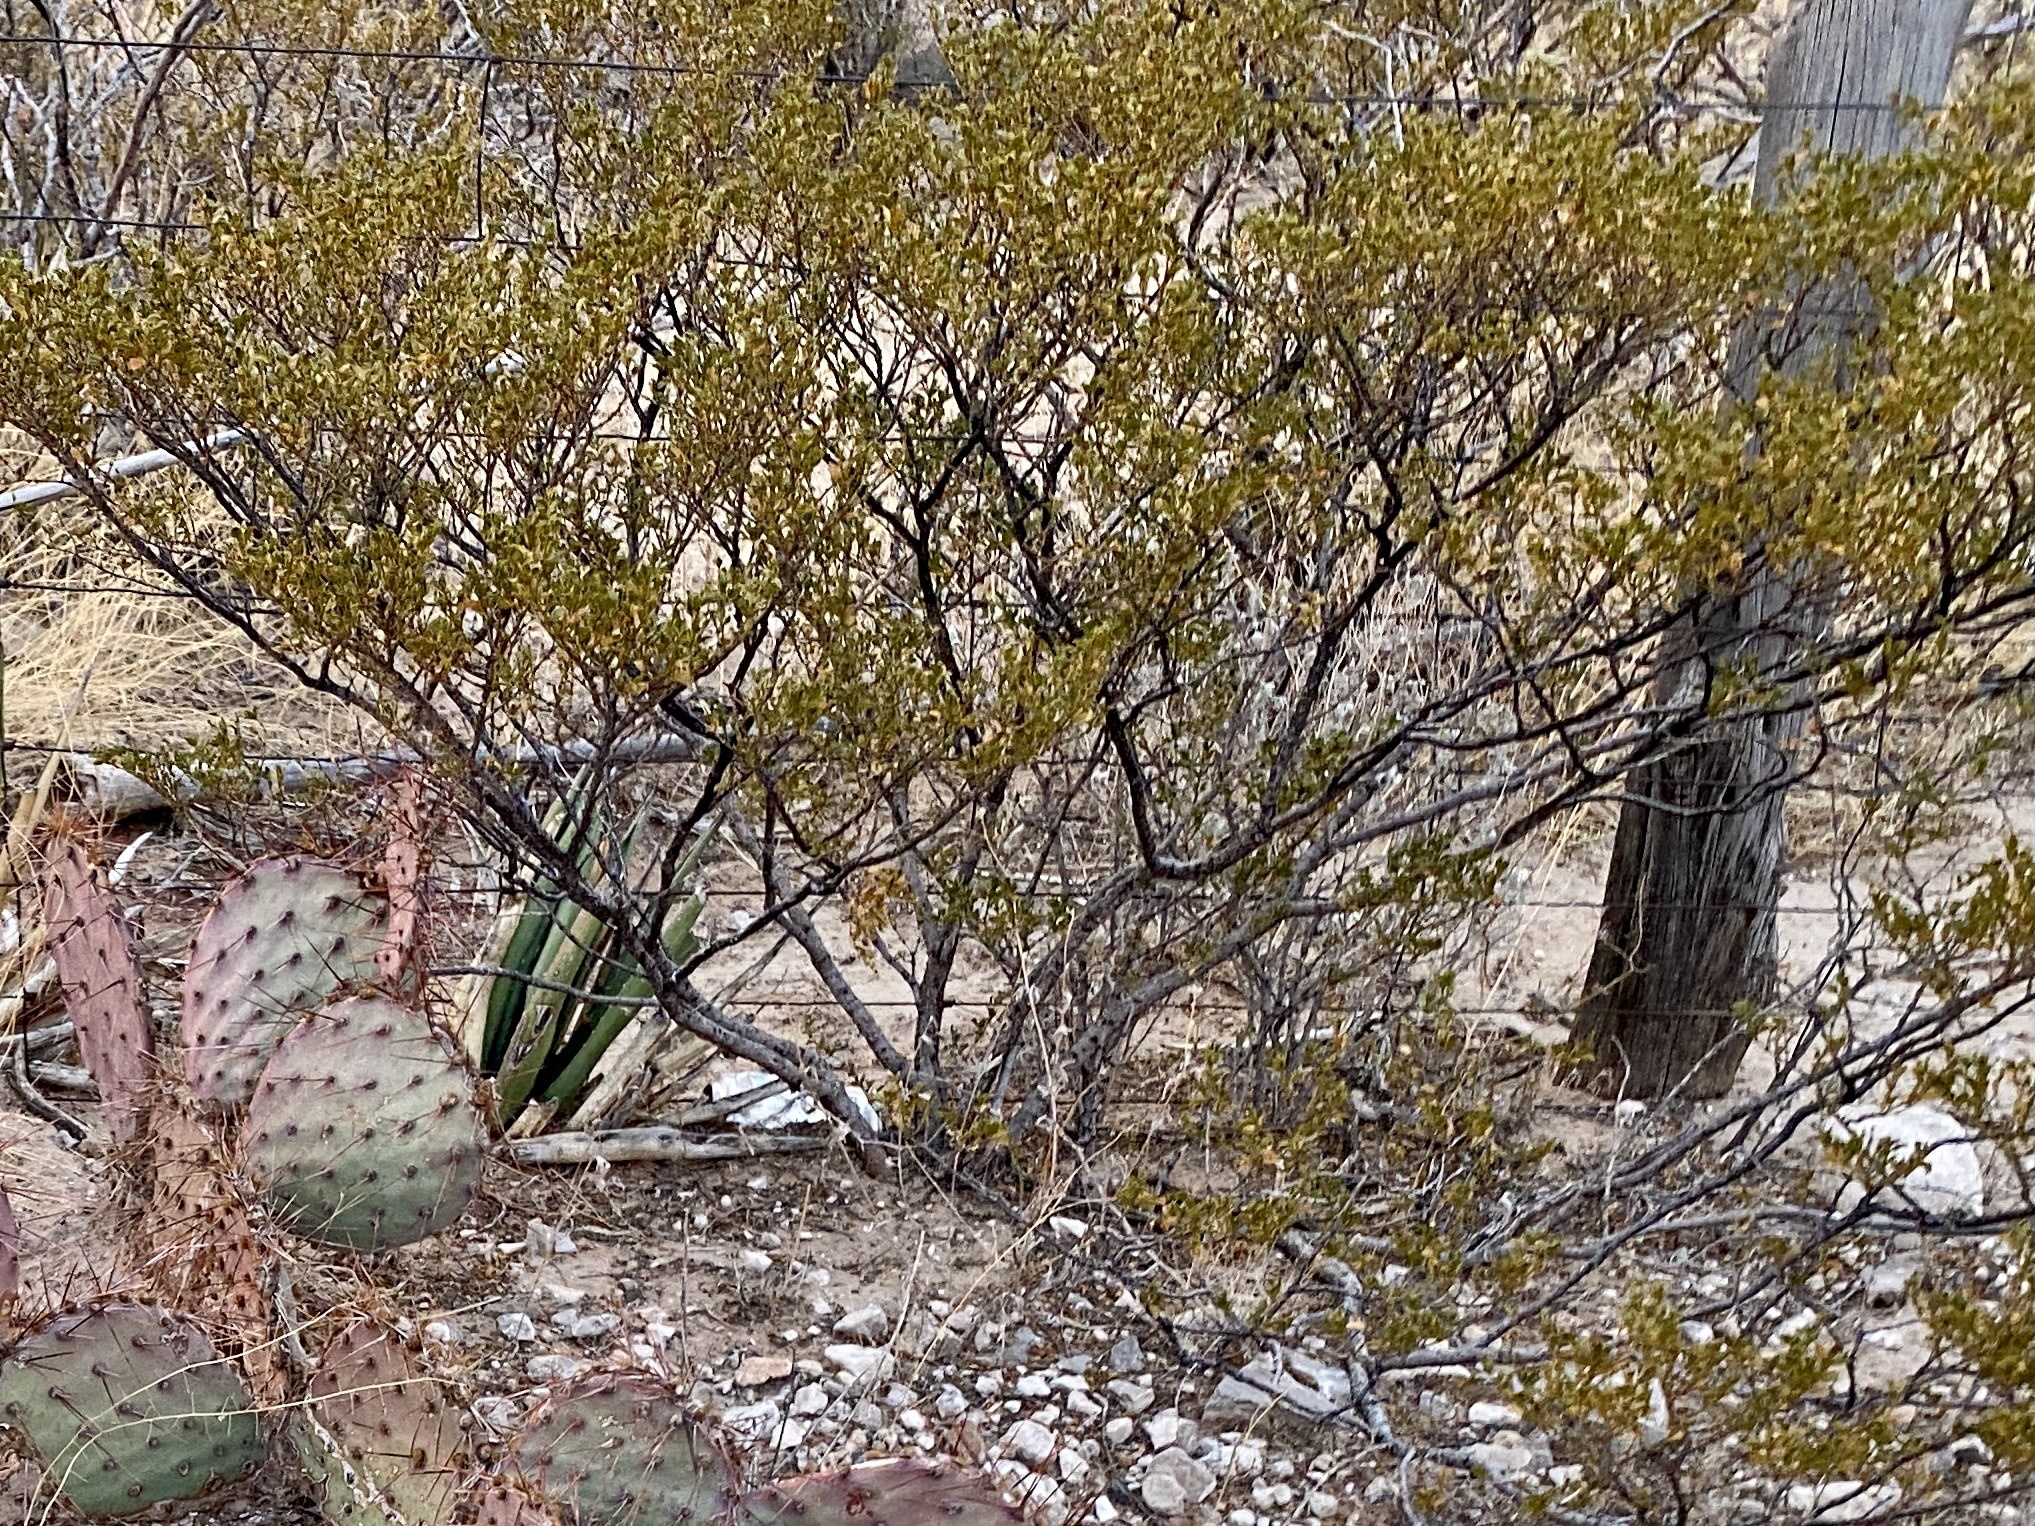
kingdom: Plantae
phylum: Tracheophyta
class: Magnoliopsida
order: Zygophyllales
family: Zygophyllaceae
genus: Larrea
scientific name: Larrea tridentata
